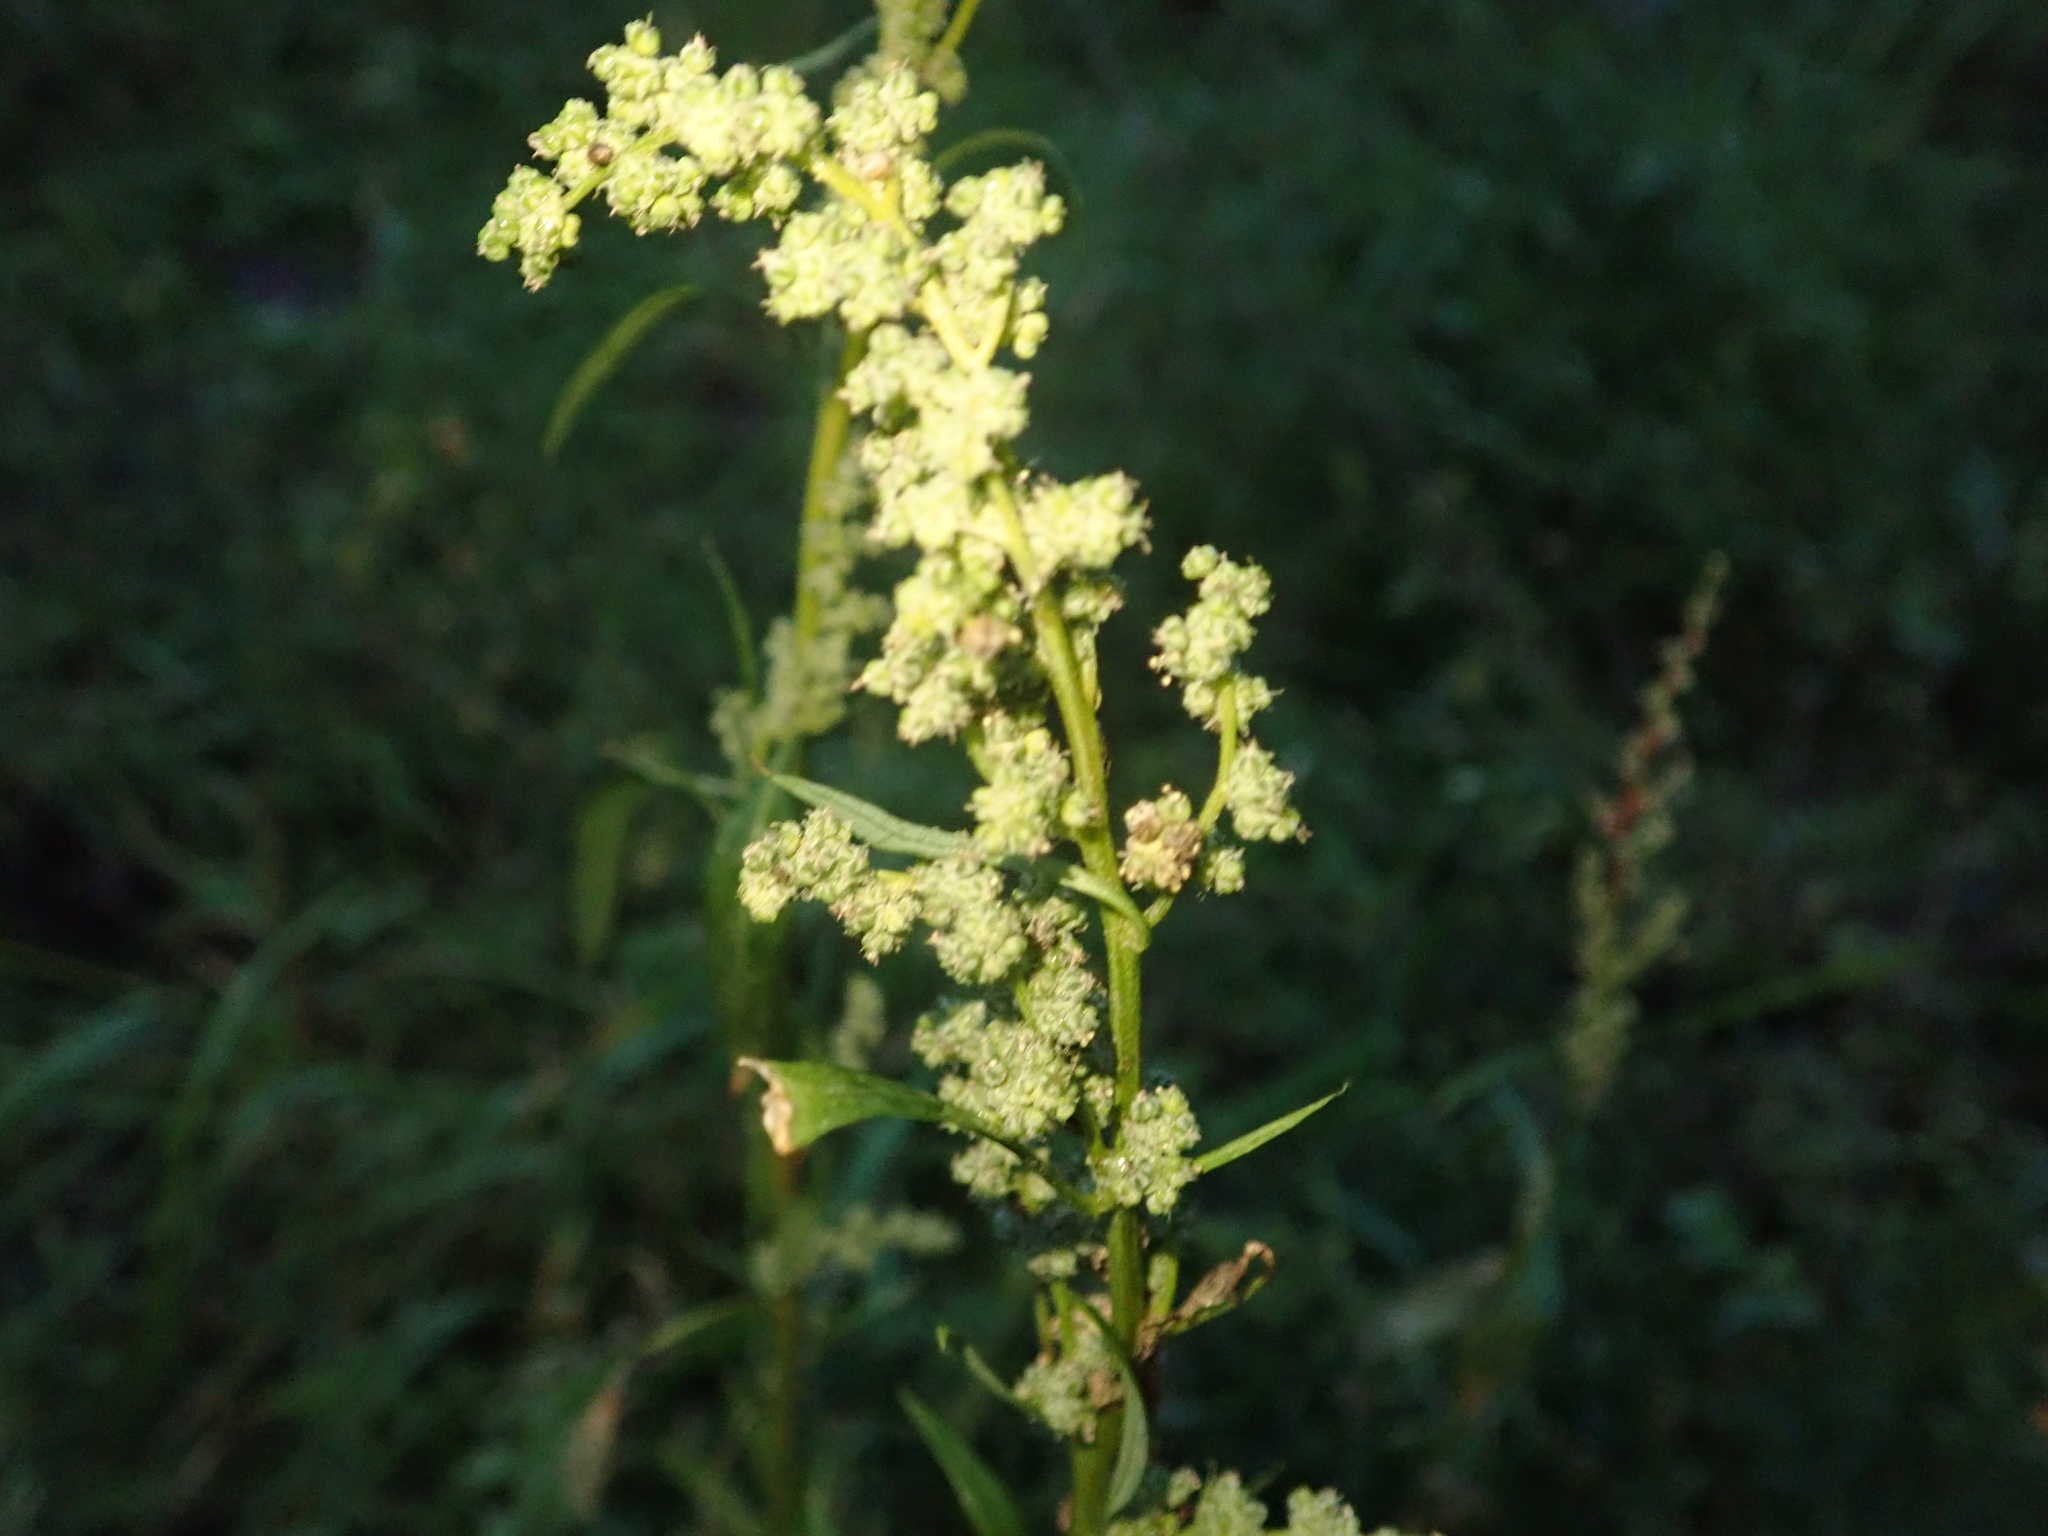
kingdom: Plantae
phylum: Tracheophyta
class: Magnoliopsida
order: Caryophyllales
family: Amaranthaceae
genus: Chenopodium
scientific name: Chenopodium album
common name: Fat-hen
